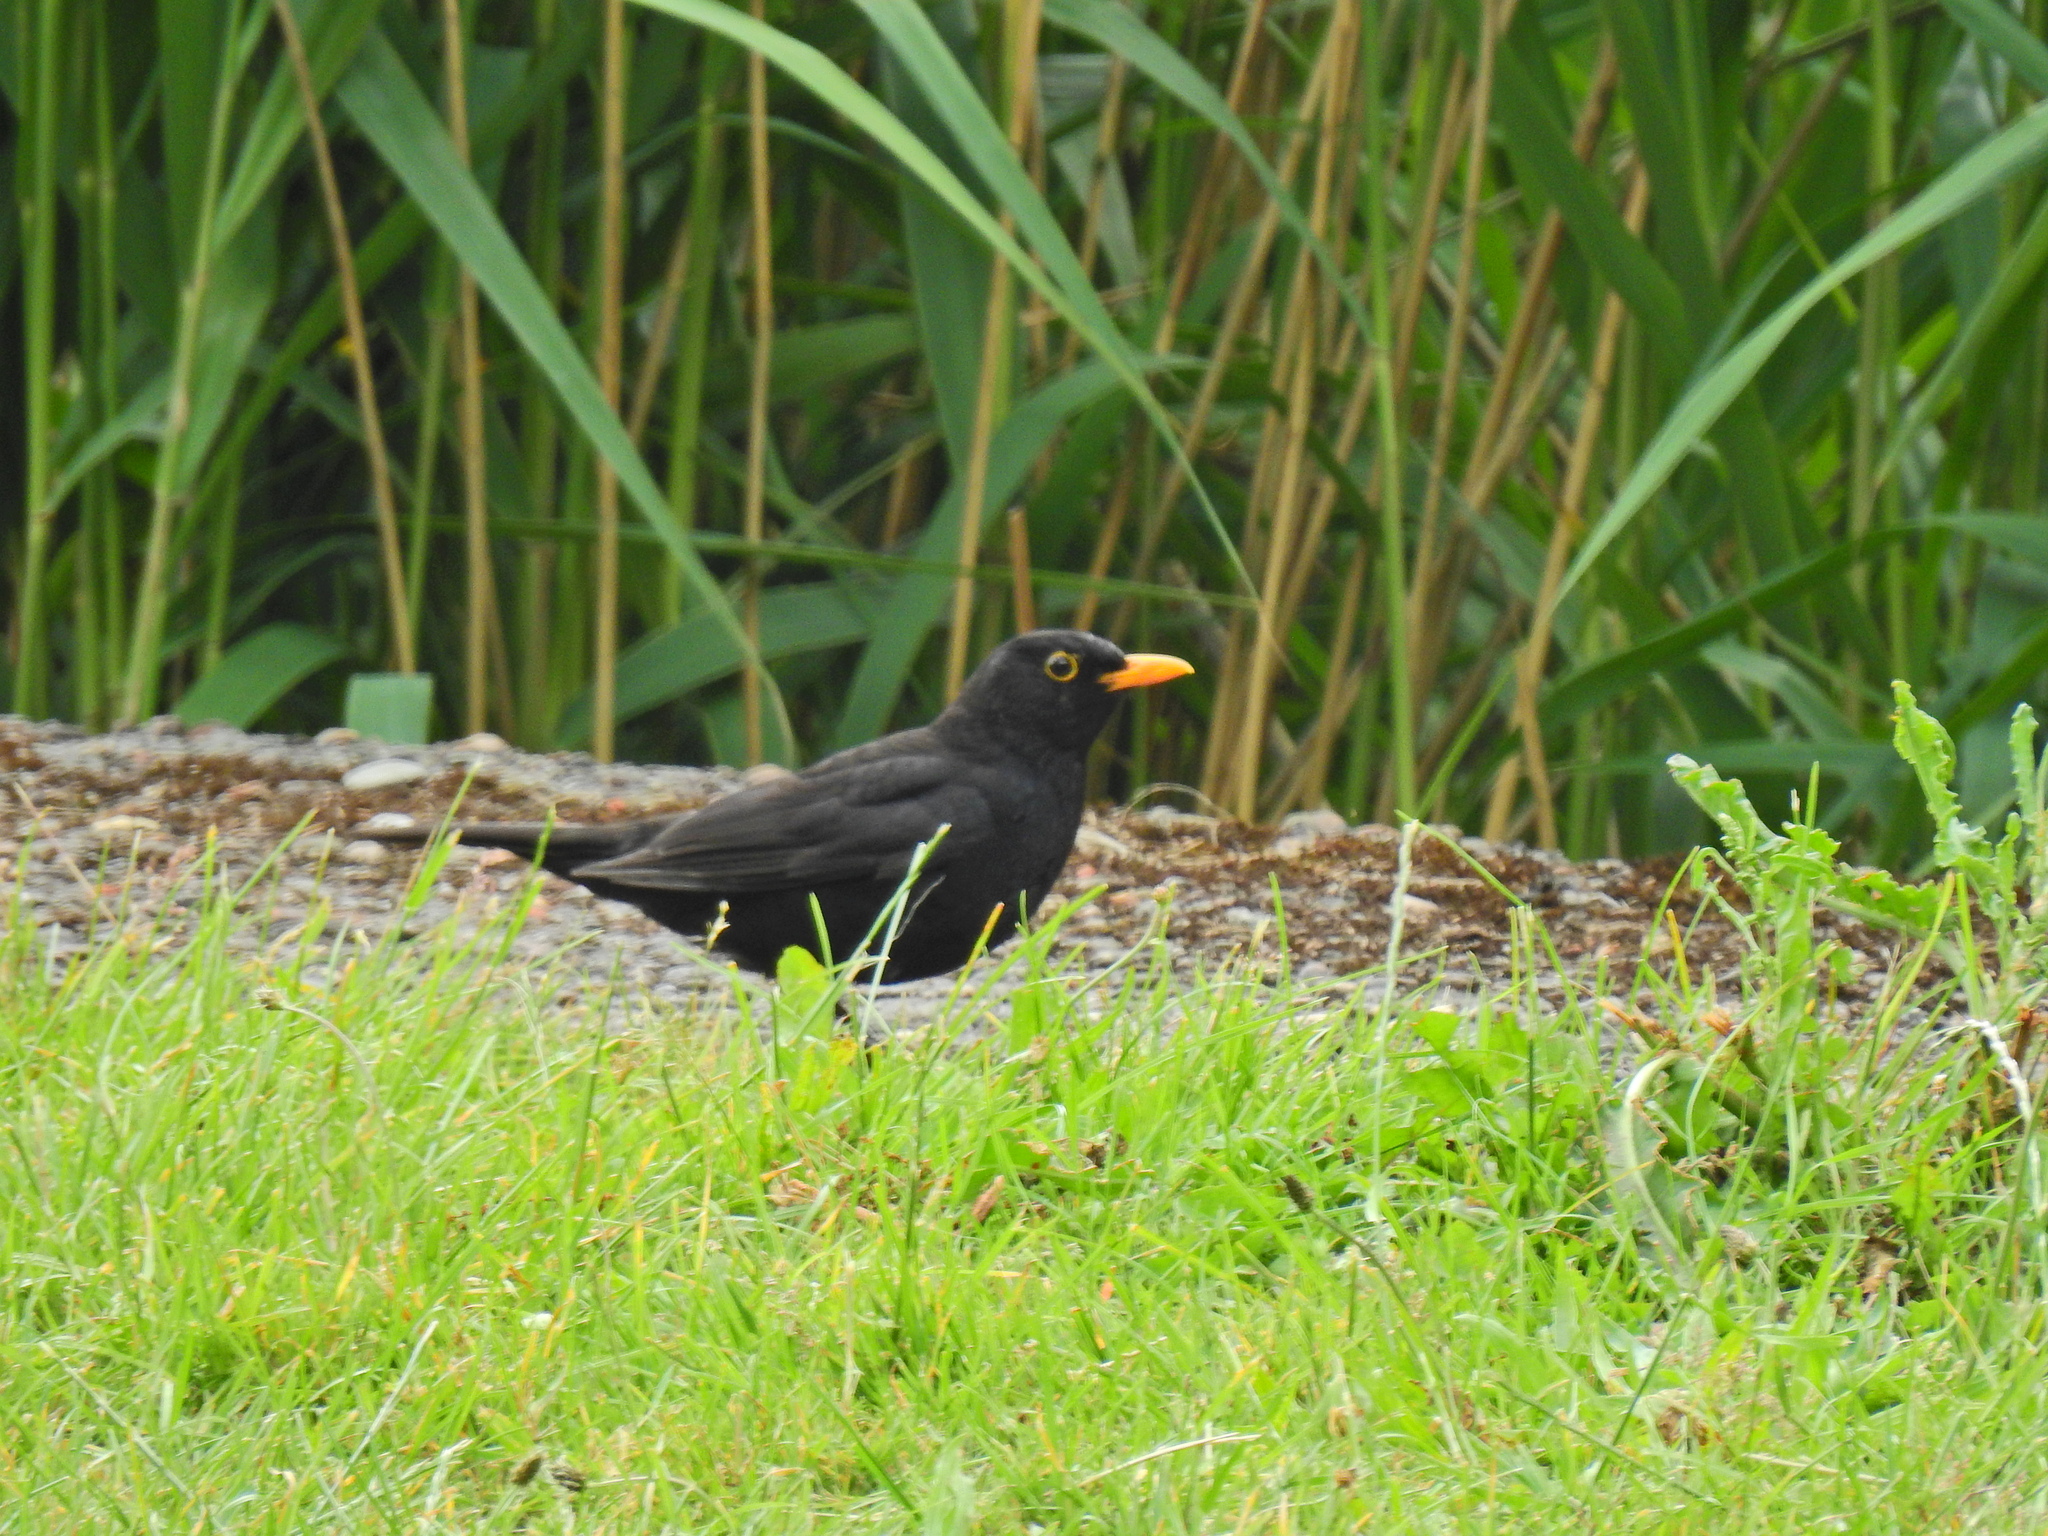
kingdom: Animalia
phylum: Chordata
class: Aves
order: Passeriformes
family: Turdidae
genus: Turdus
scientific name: Turdus merula
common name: Common blackbird
